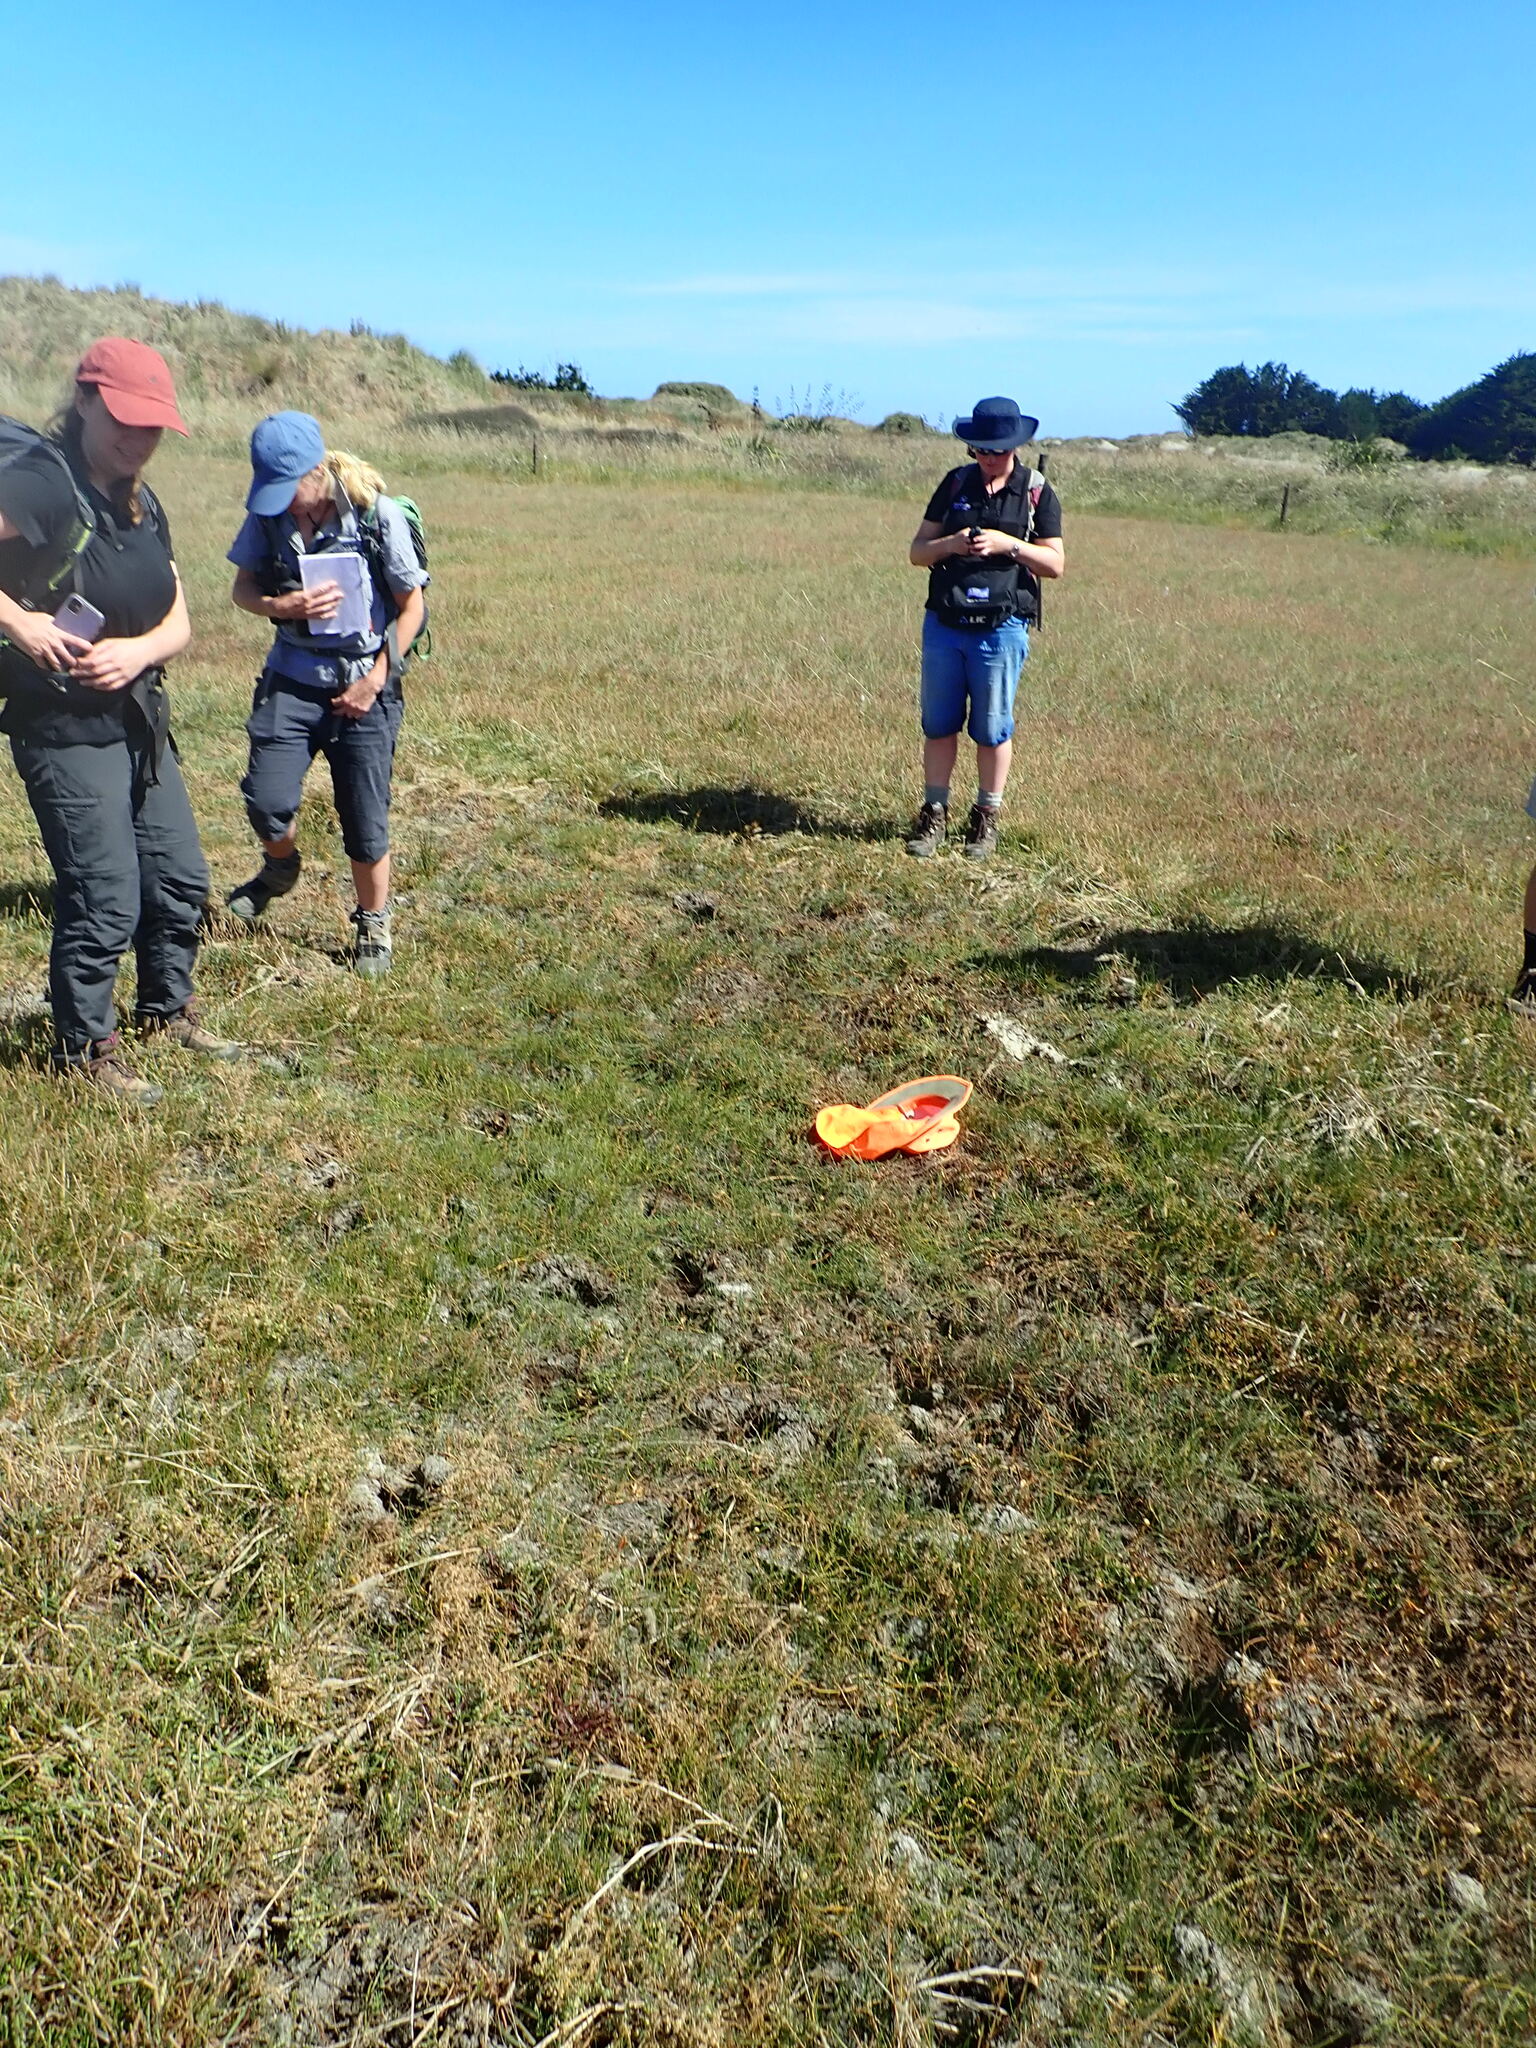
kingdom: Plantae
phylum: Tracheophyta
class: Magnoliopsida
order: Lamiales
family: Phrymaceae
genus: Thyridia
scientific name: Thyridia repens
